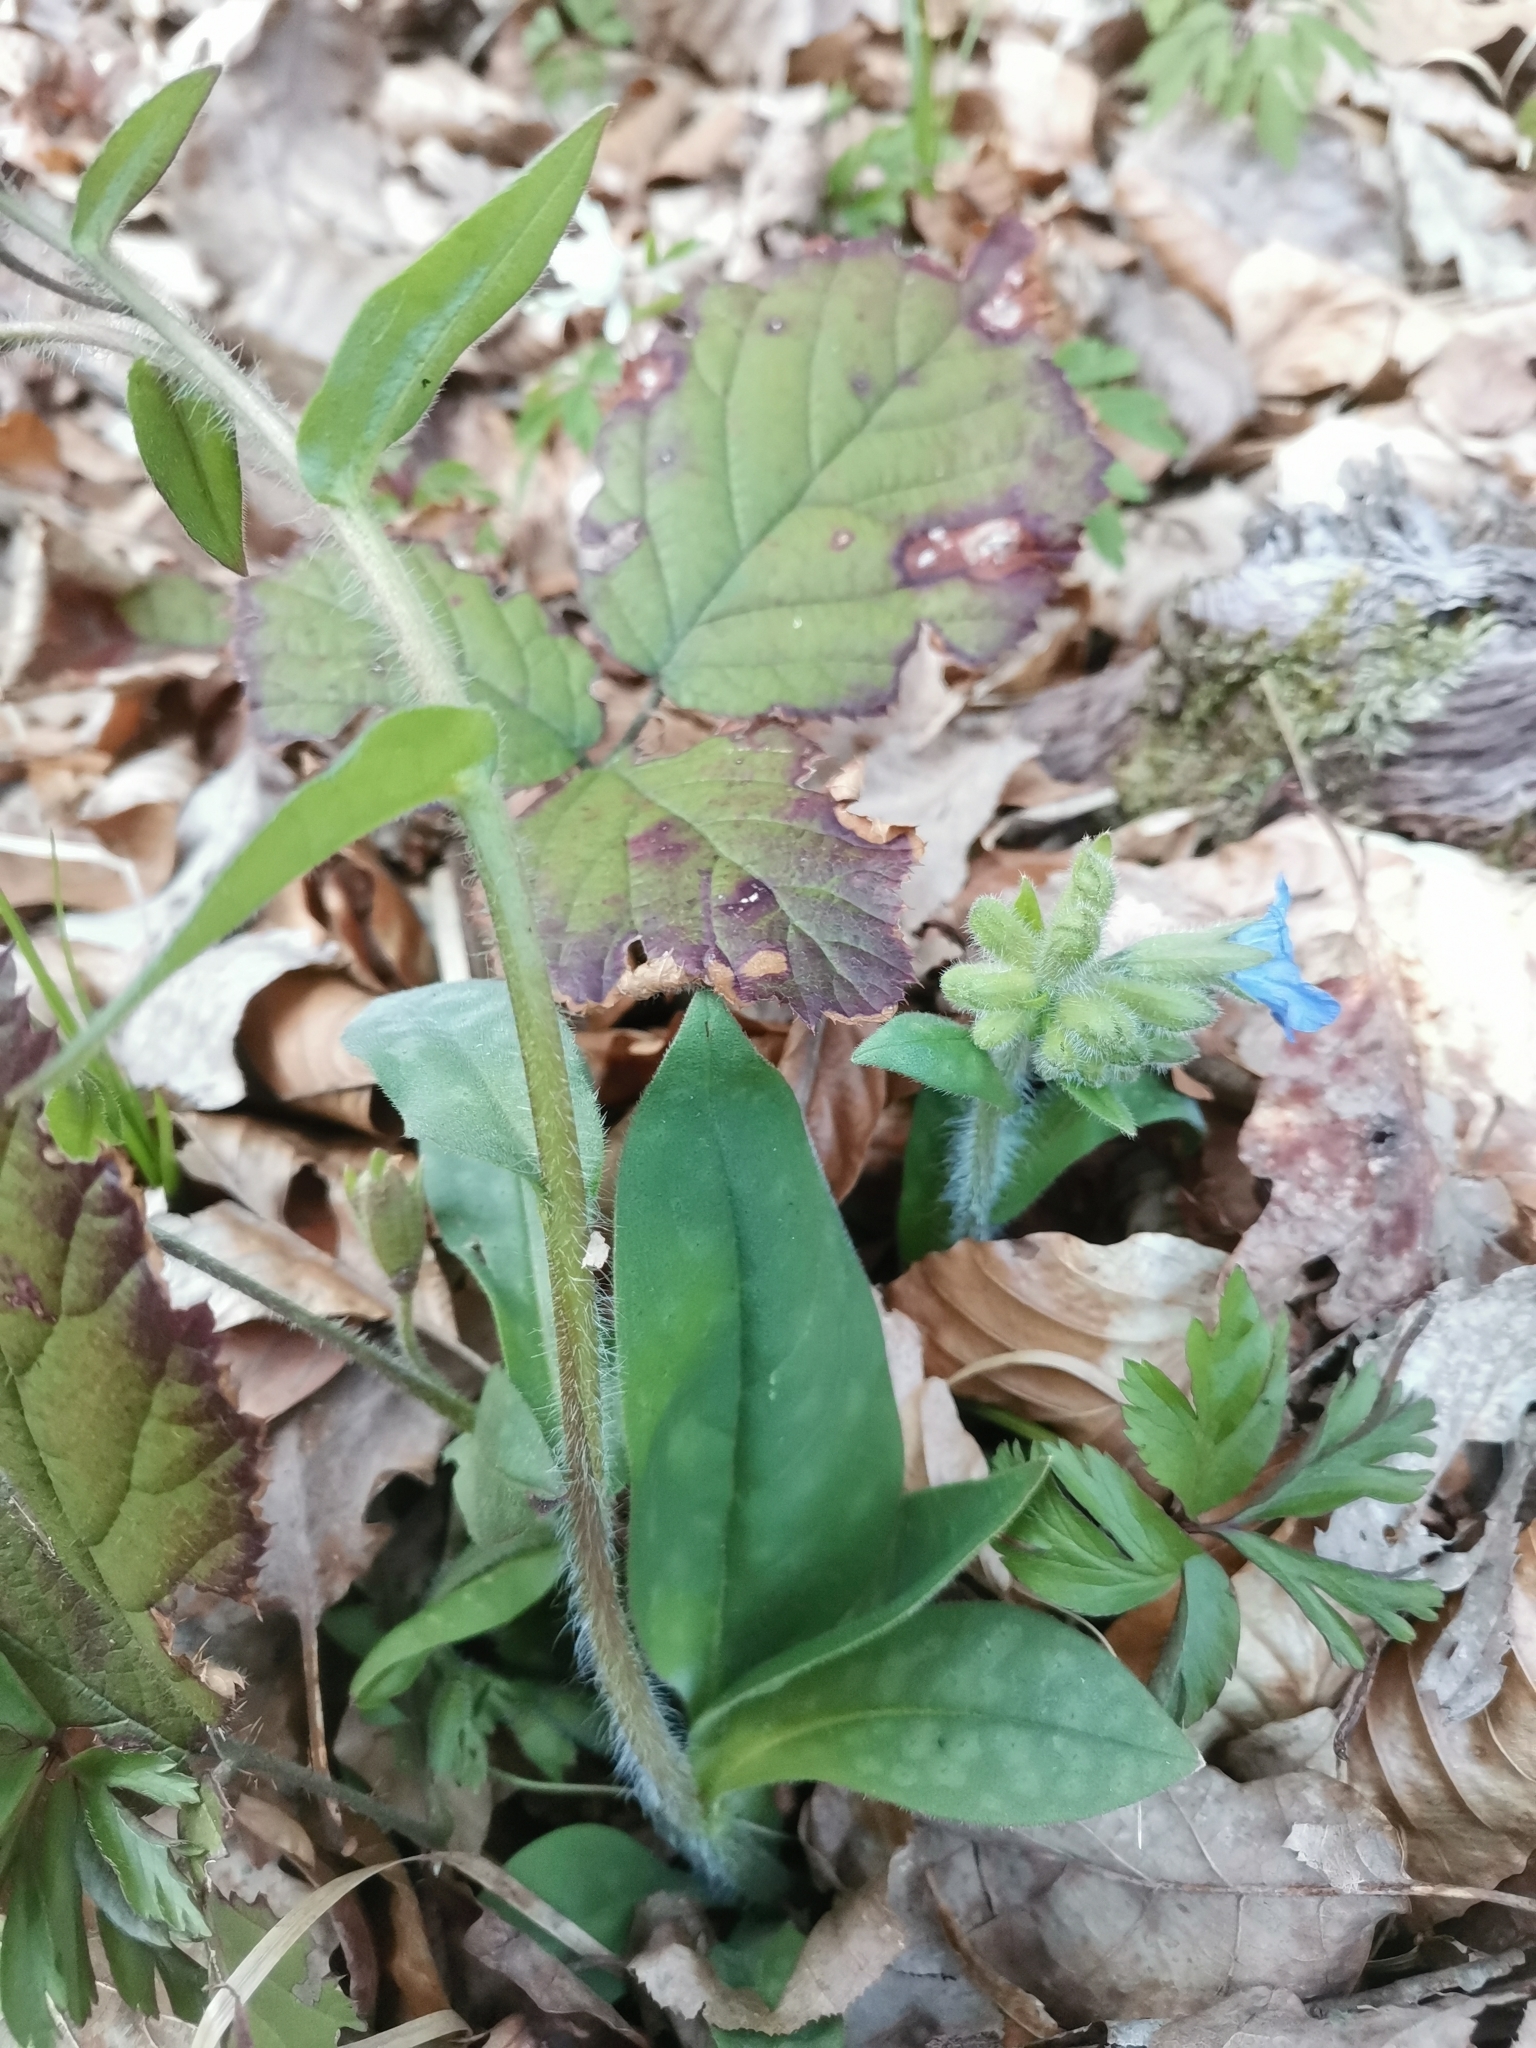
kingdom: Plantae
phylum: Tracheophyta
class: Magnoliopsida
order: Boraginales
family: Boraginaceae
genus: Pulmonaria
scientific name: Pulmonaria officinalis
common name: Lungwort
